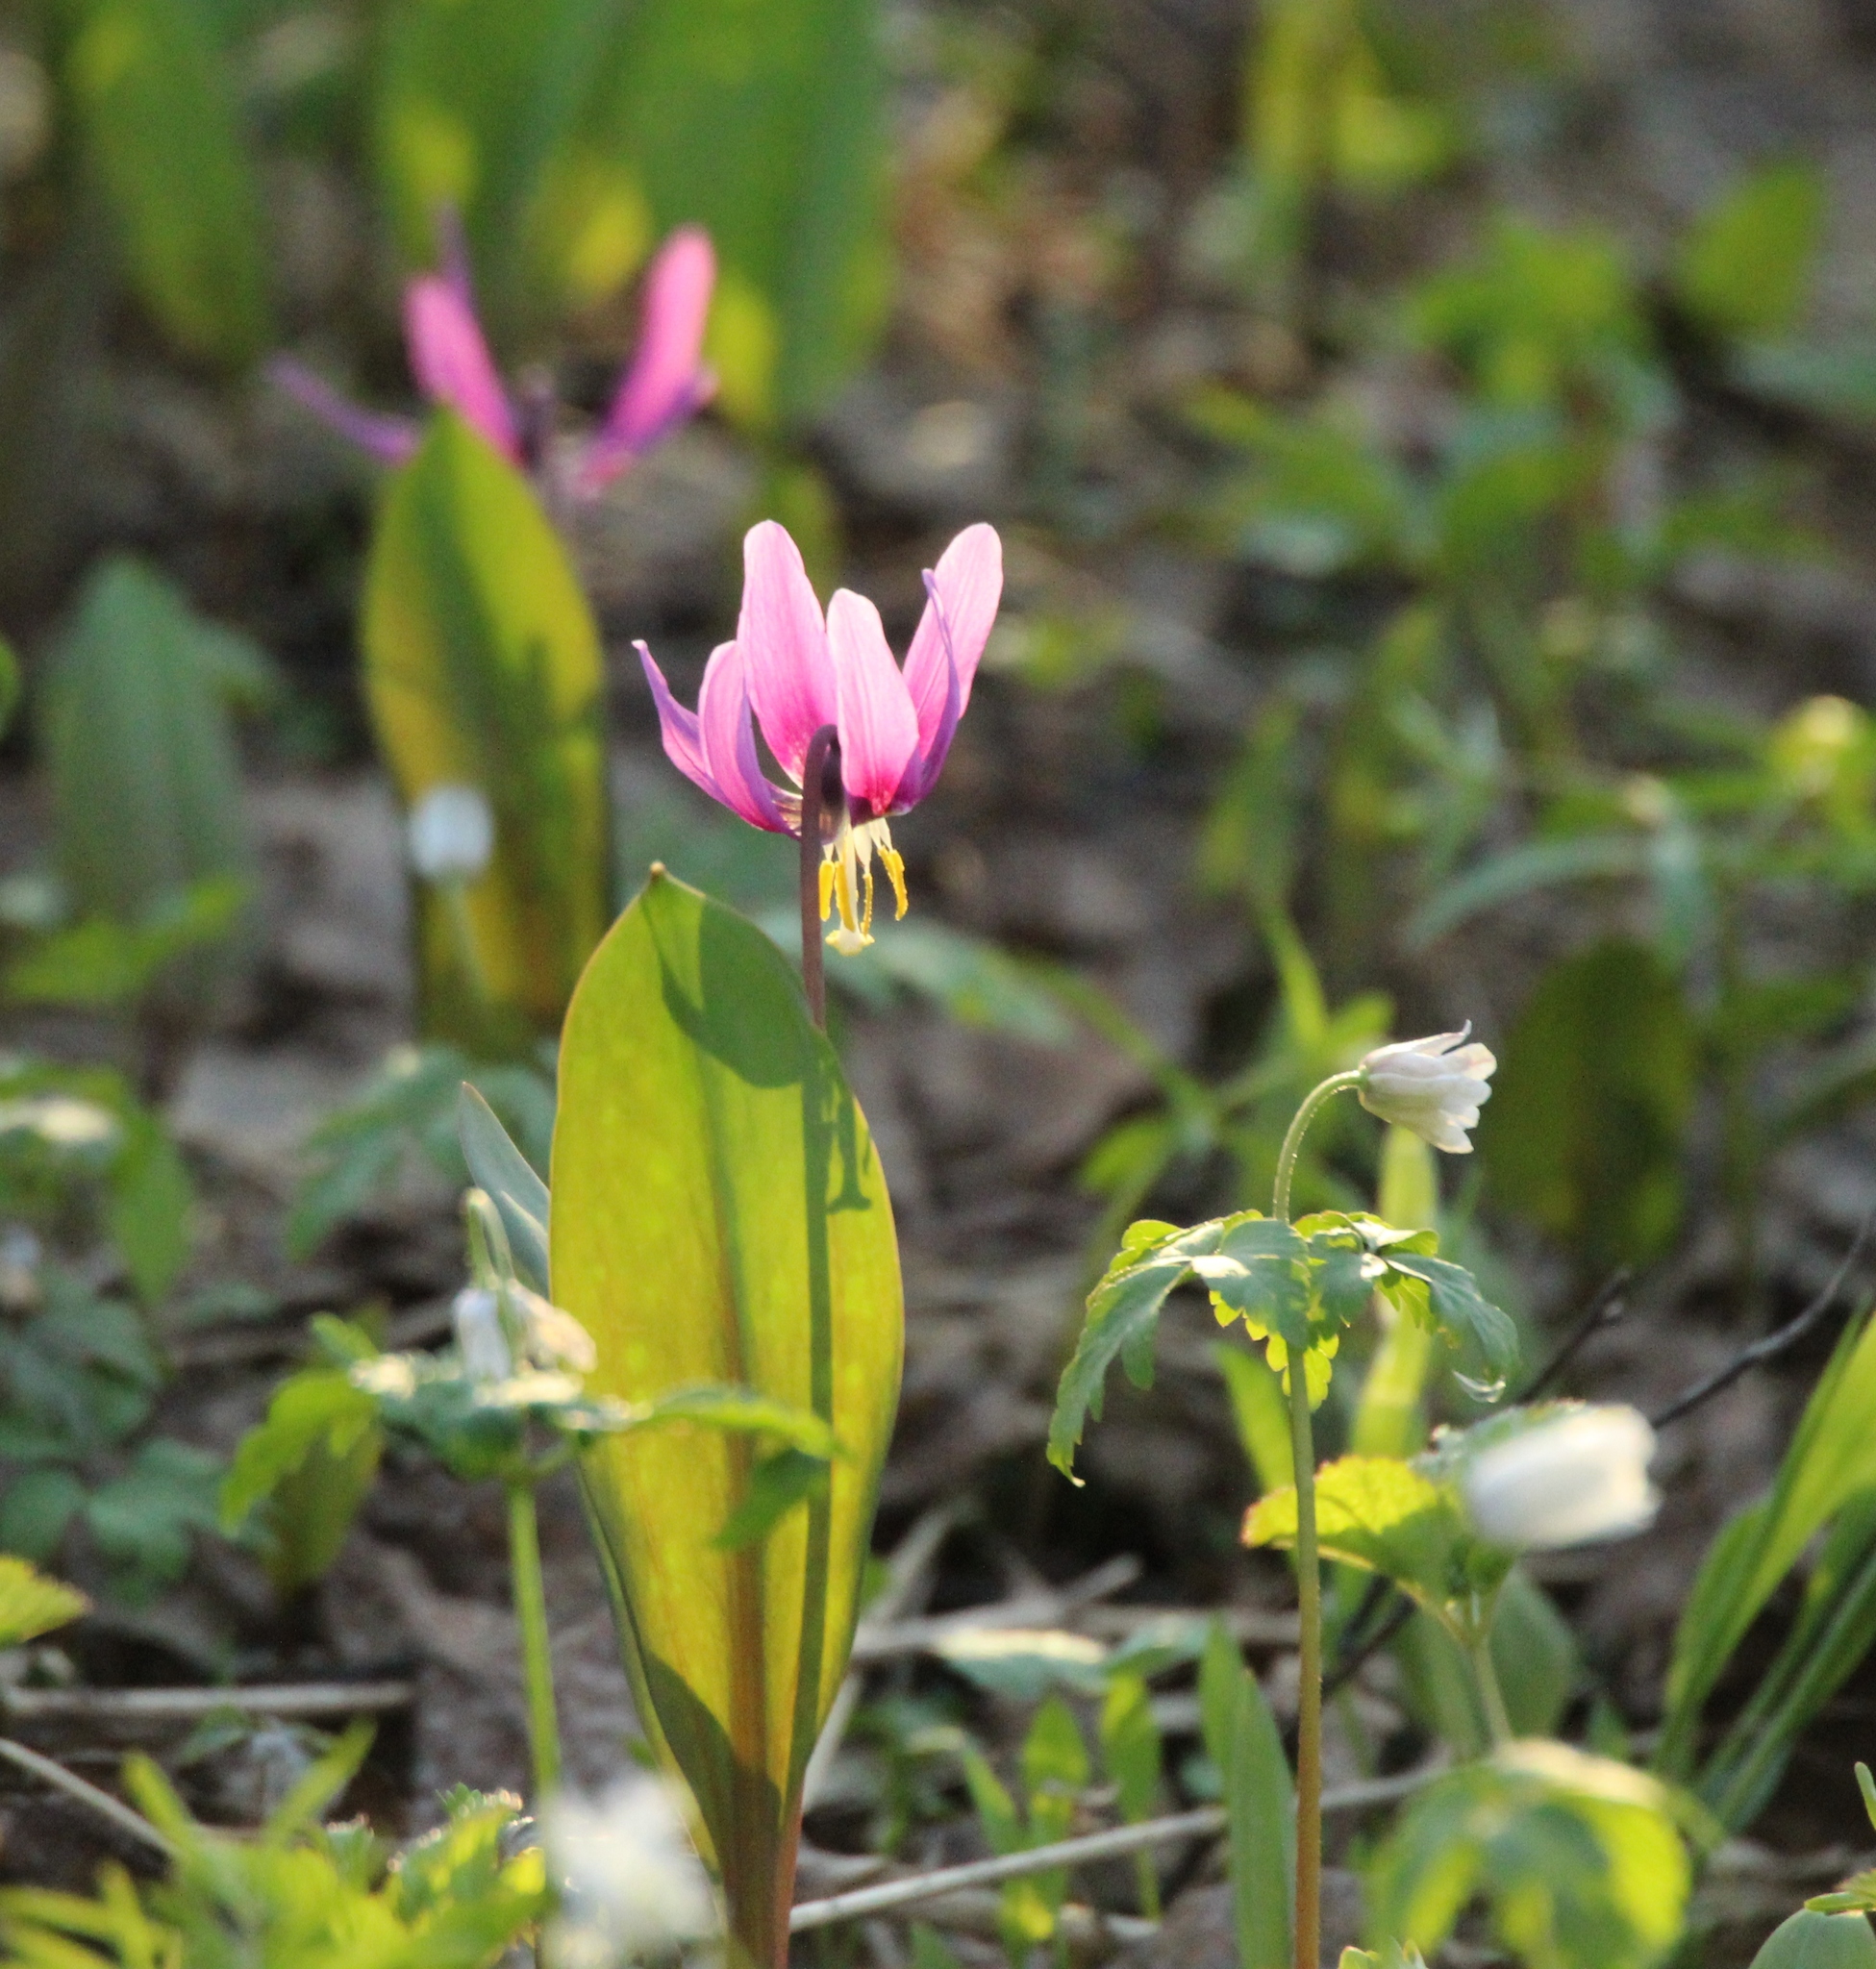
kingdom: Plantae
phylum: Tracheophyta
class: Liliopsida
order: Liliales
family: Liliaceae
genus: Erythronium
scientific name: Erythronium sibiricum
